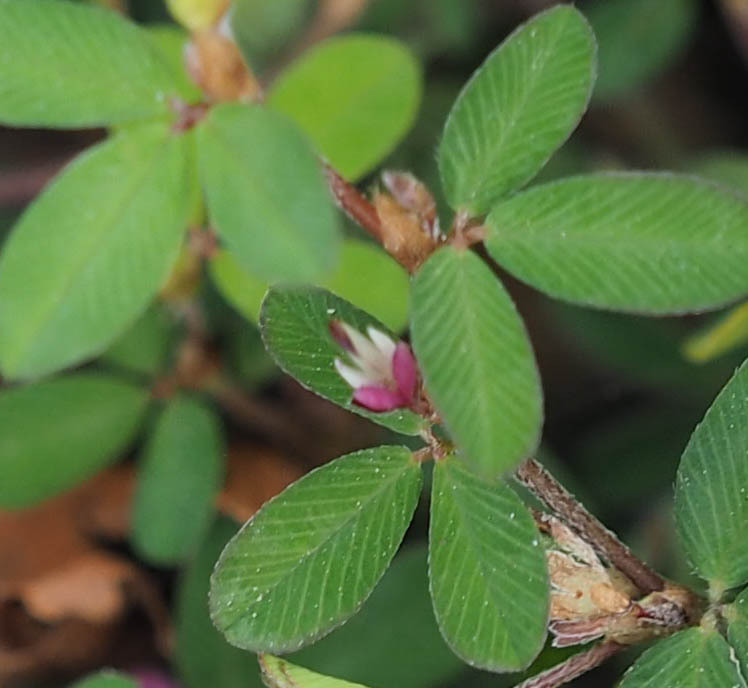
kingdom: Plantae
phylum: Tracheophyta
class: Magnoliopsida
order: Fabales
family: Fabaceae
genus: Kummerowia
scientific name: Kummerowia striata
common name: Japanese clover
